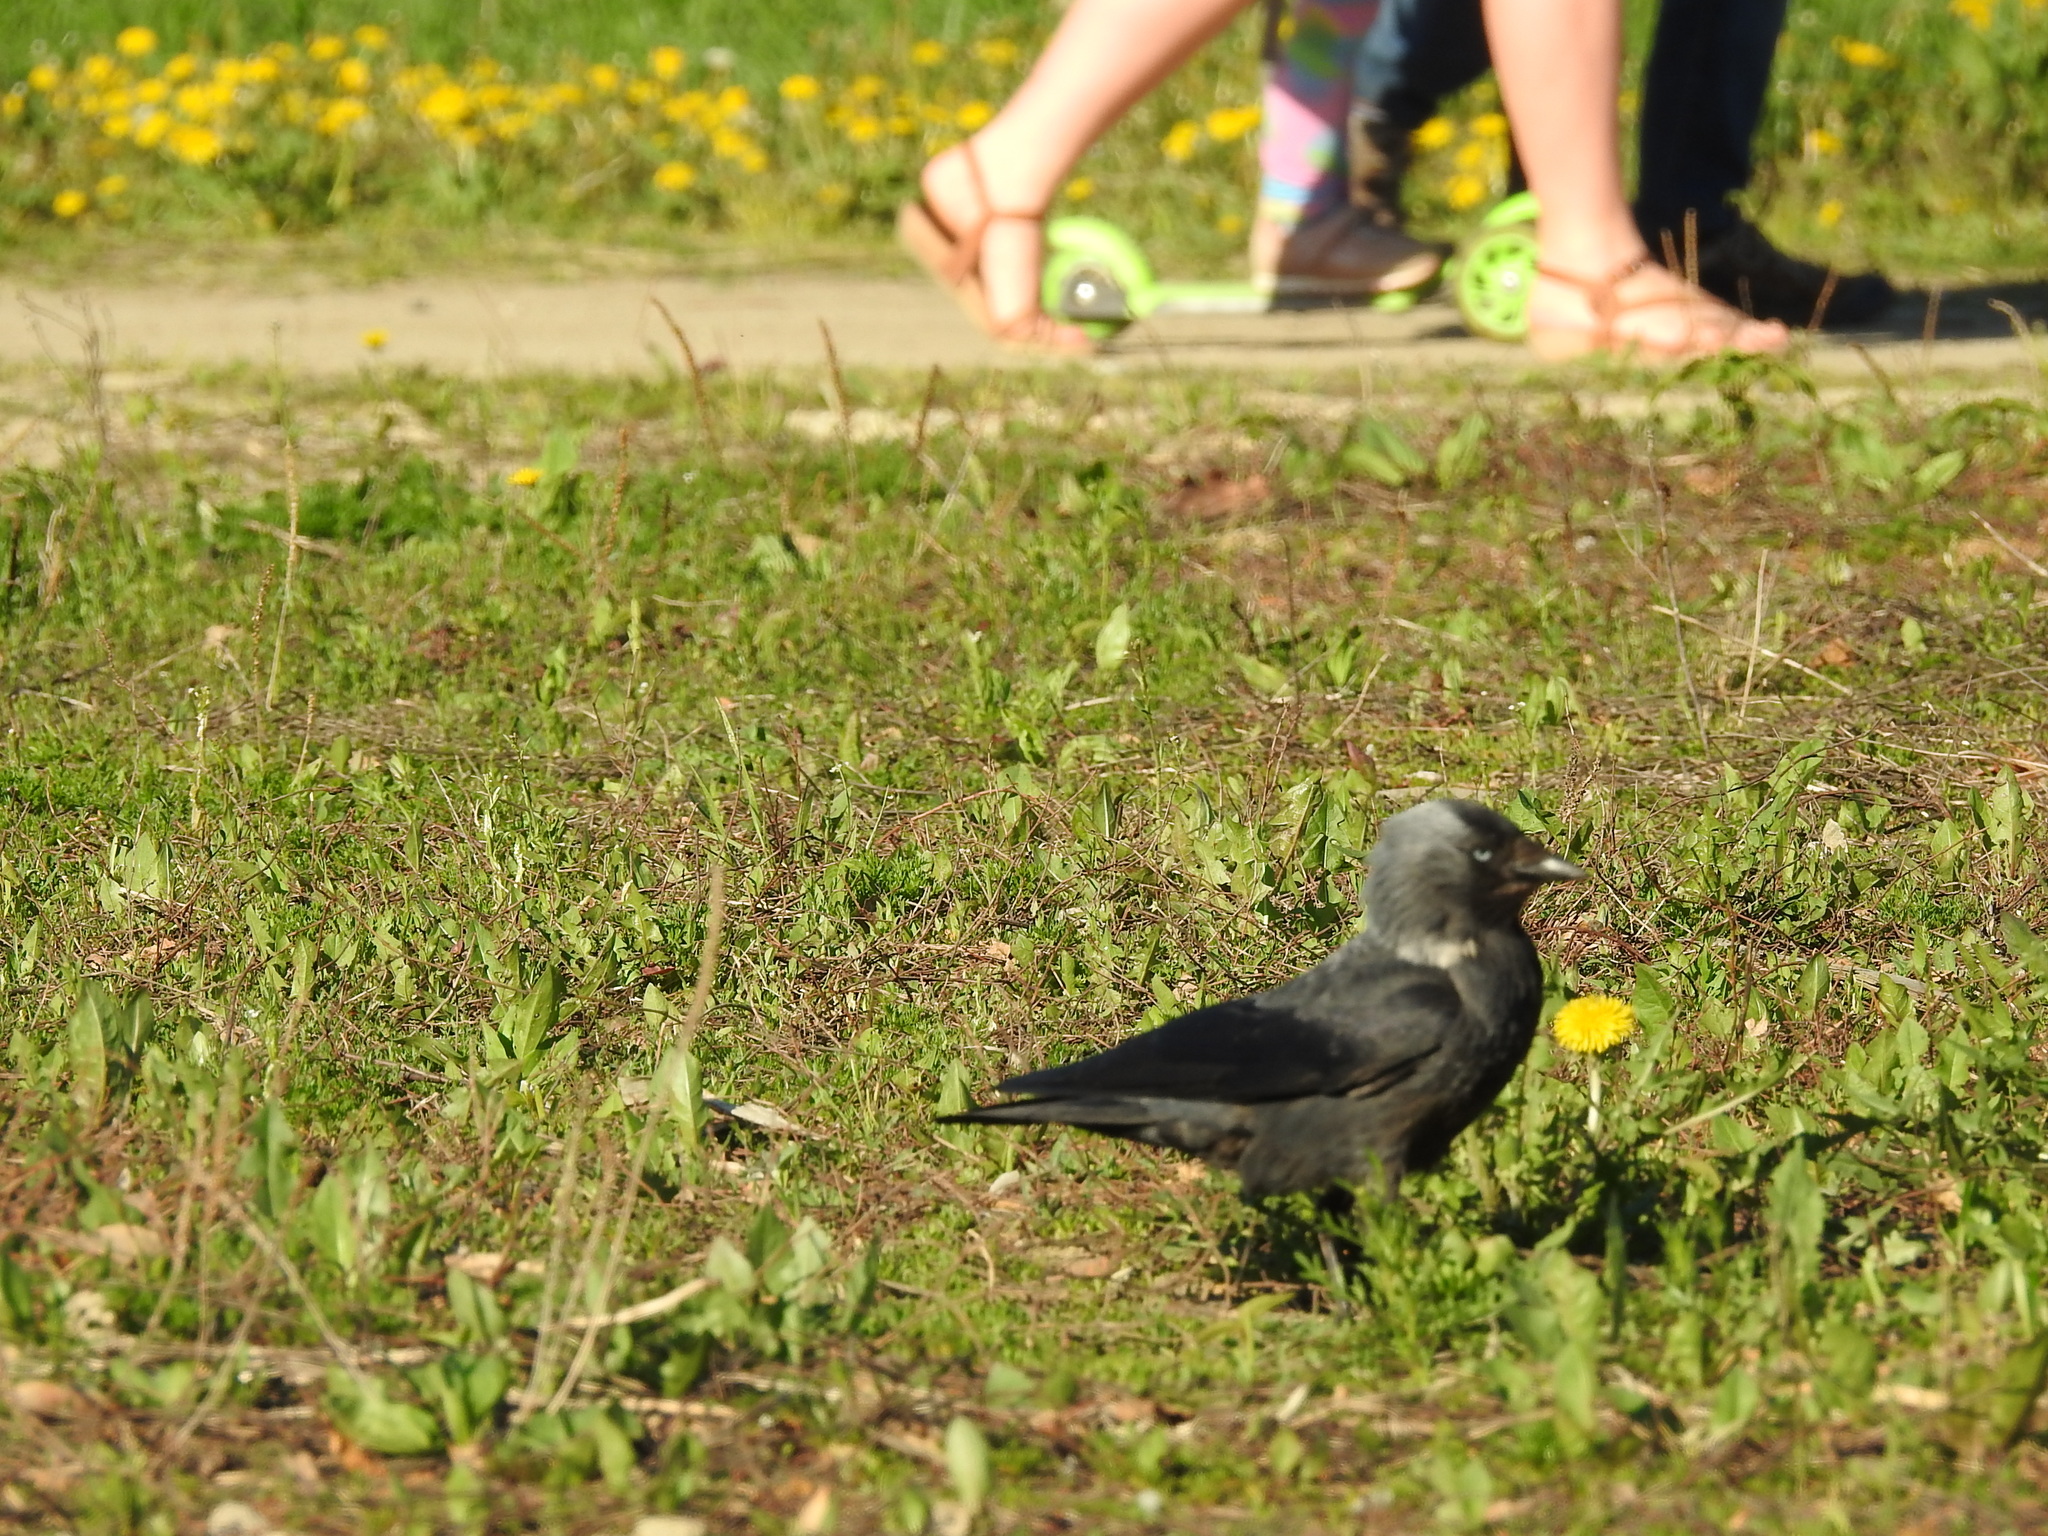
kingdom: Animalia
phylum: Chordata
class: Aves
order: Passeriformes
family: Corvidae
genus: Coloeus
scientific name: Coloeus monedula
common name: Western jackdaw
